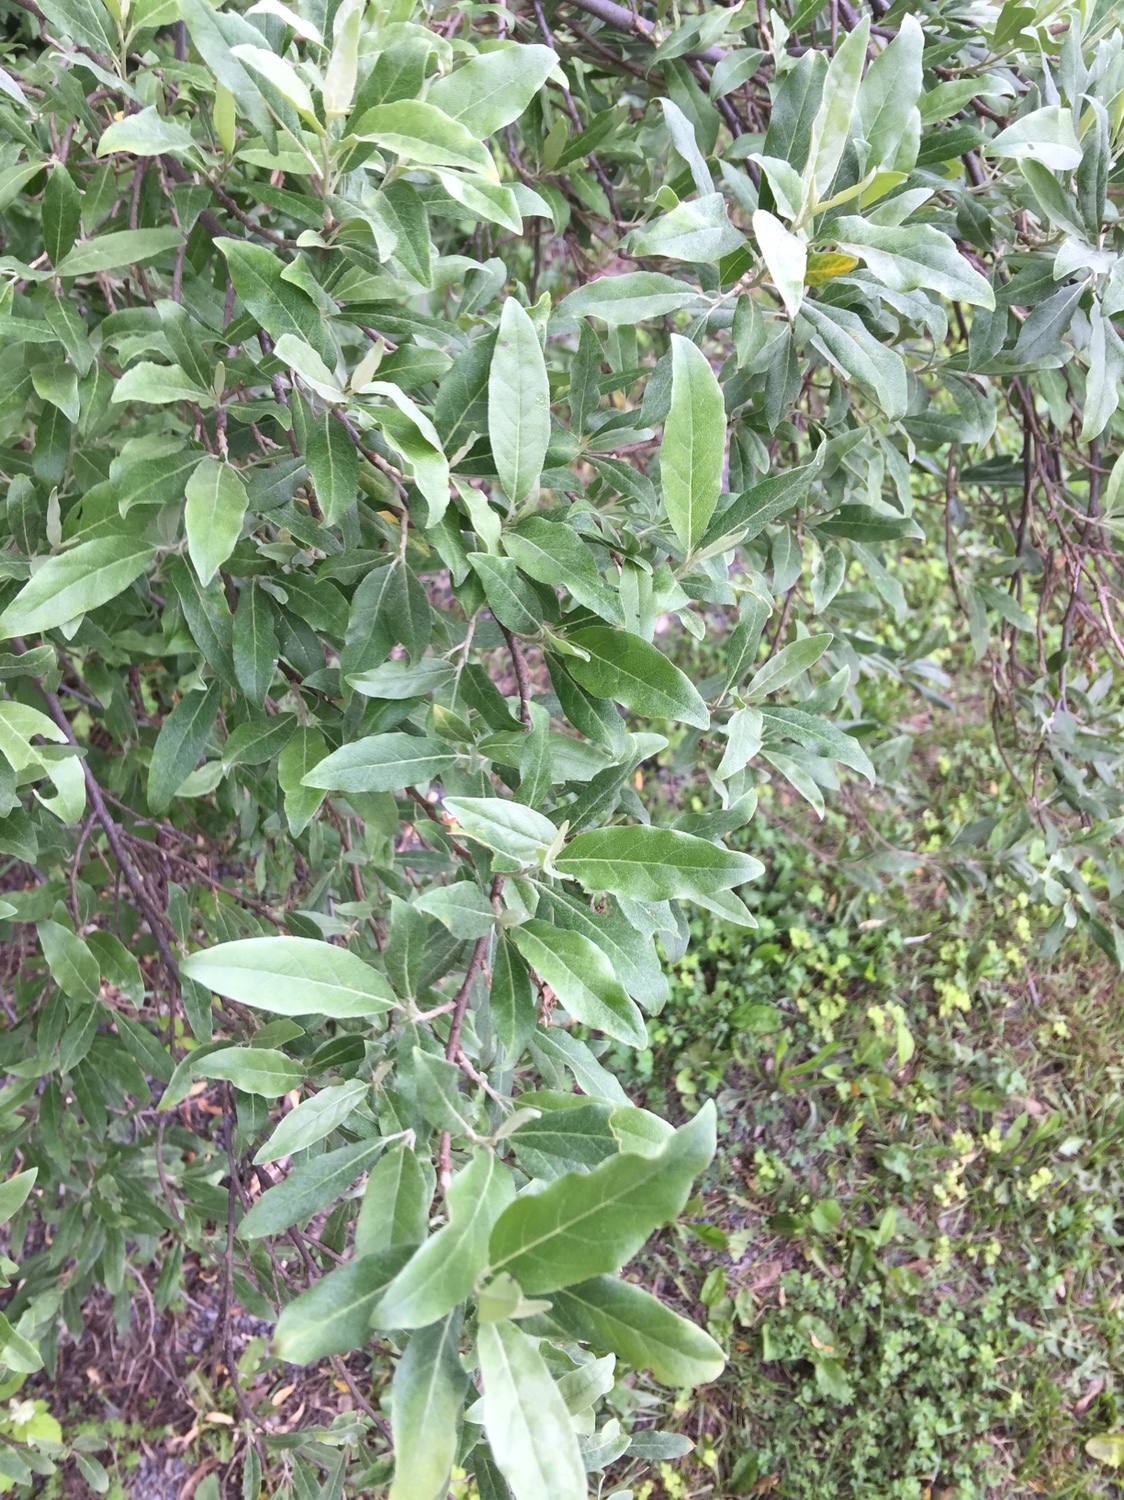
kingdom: Plantae
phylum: Tracheophyta
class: Magnoliopsida
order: Rosales
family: Elaeagnaceae
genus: Elaeagnus
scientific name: Elaeagnus umbellata
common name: Autumn olive
